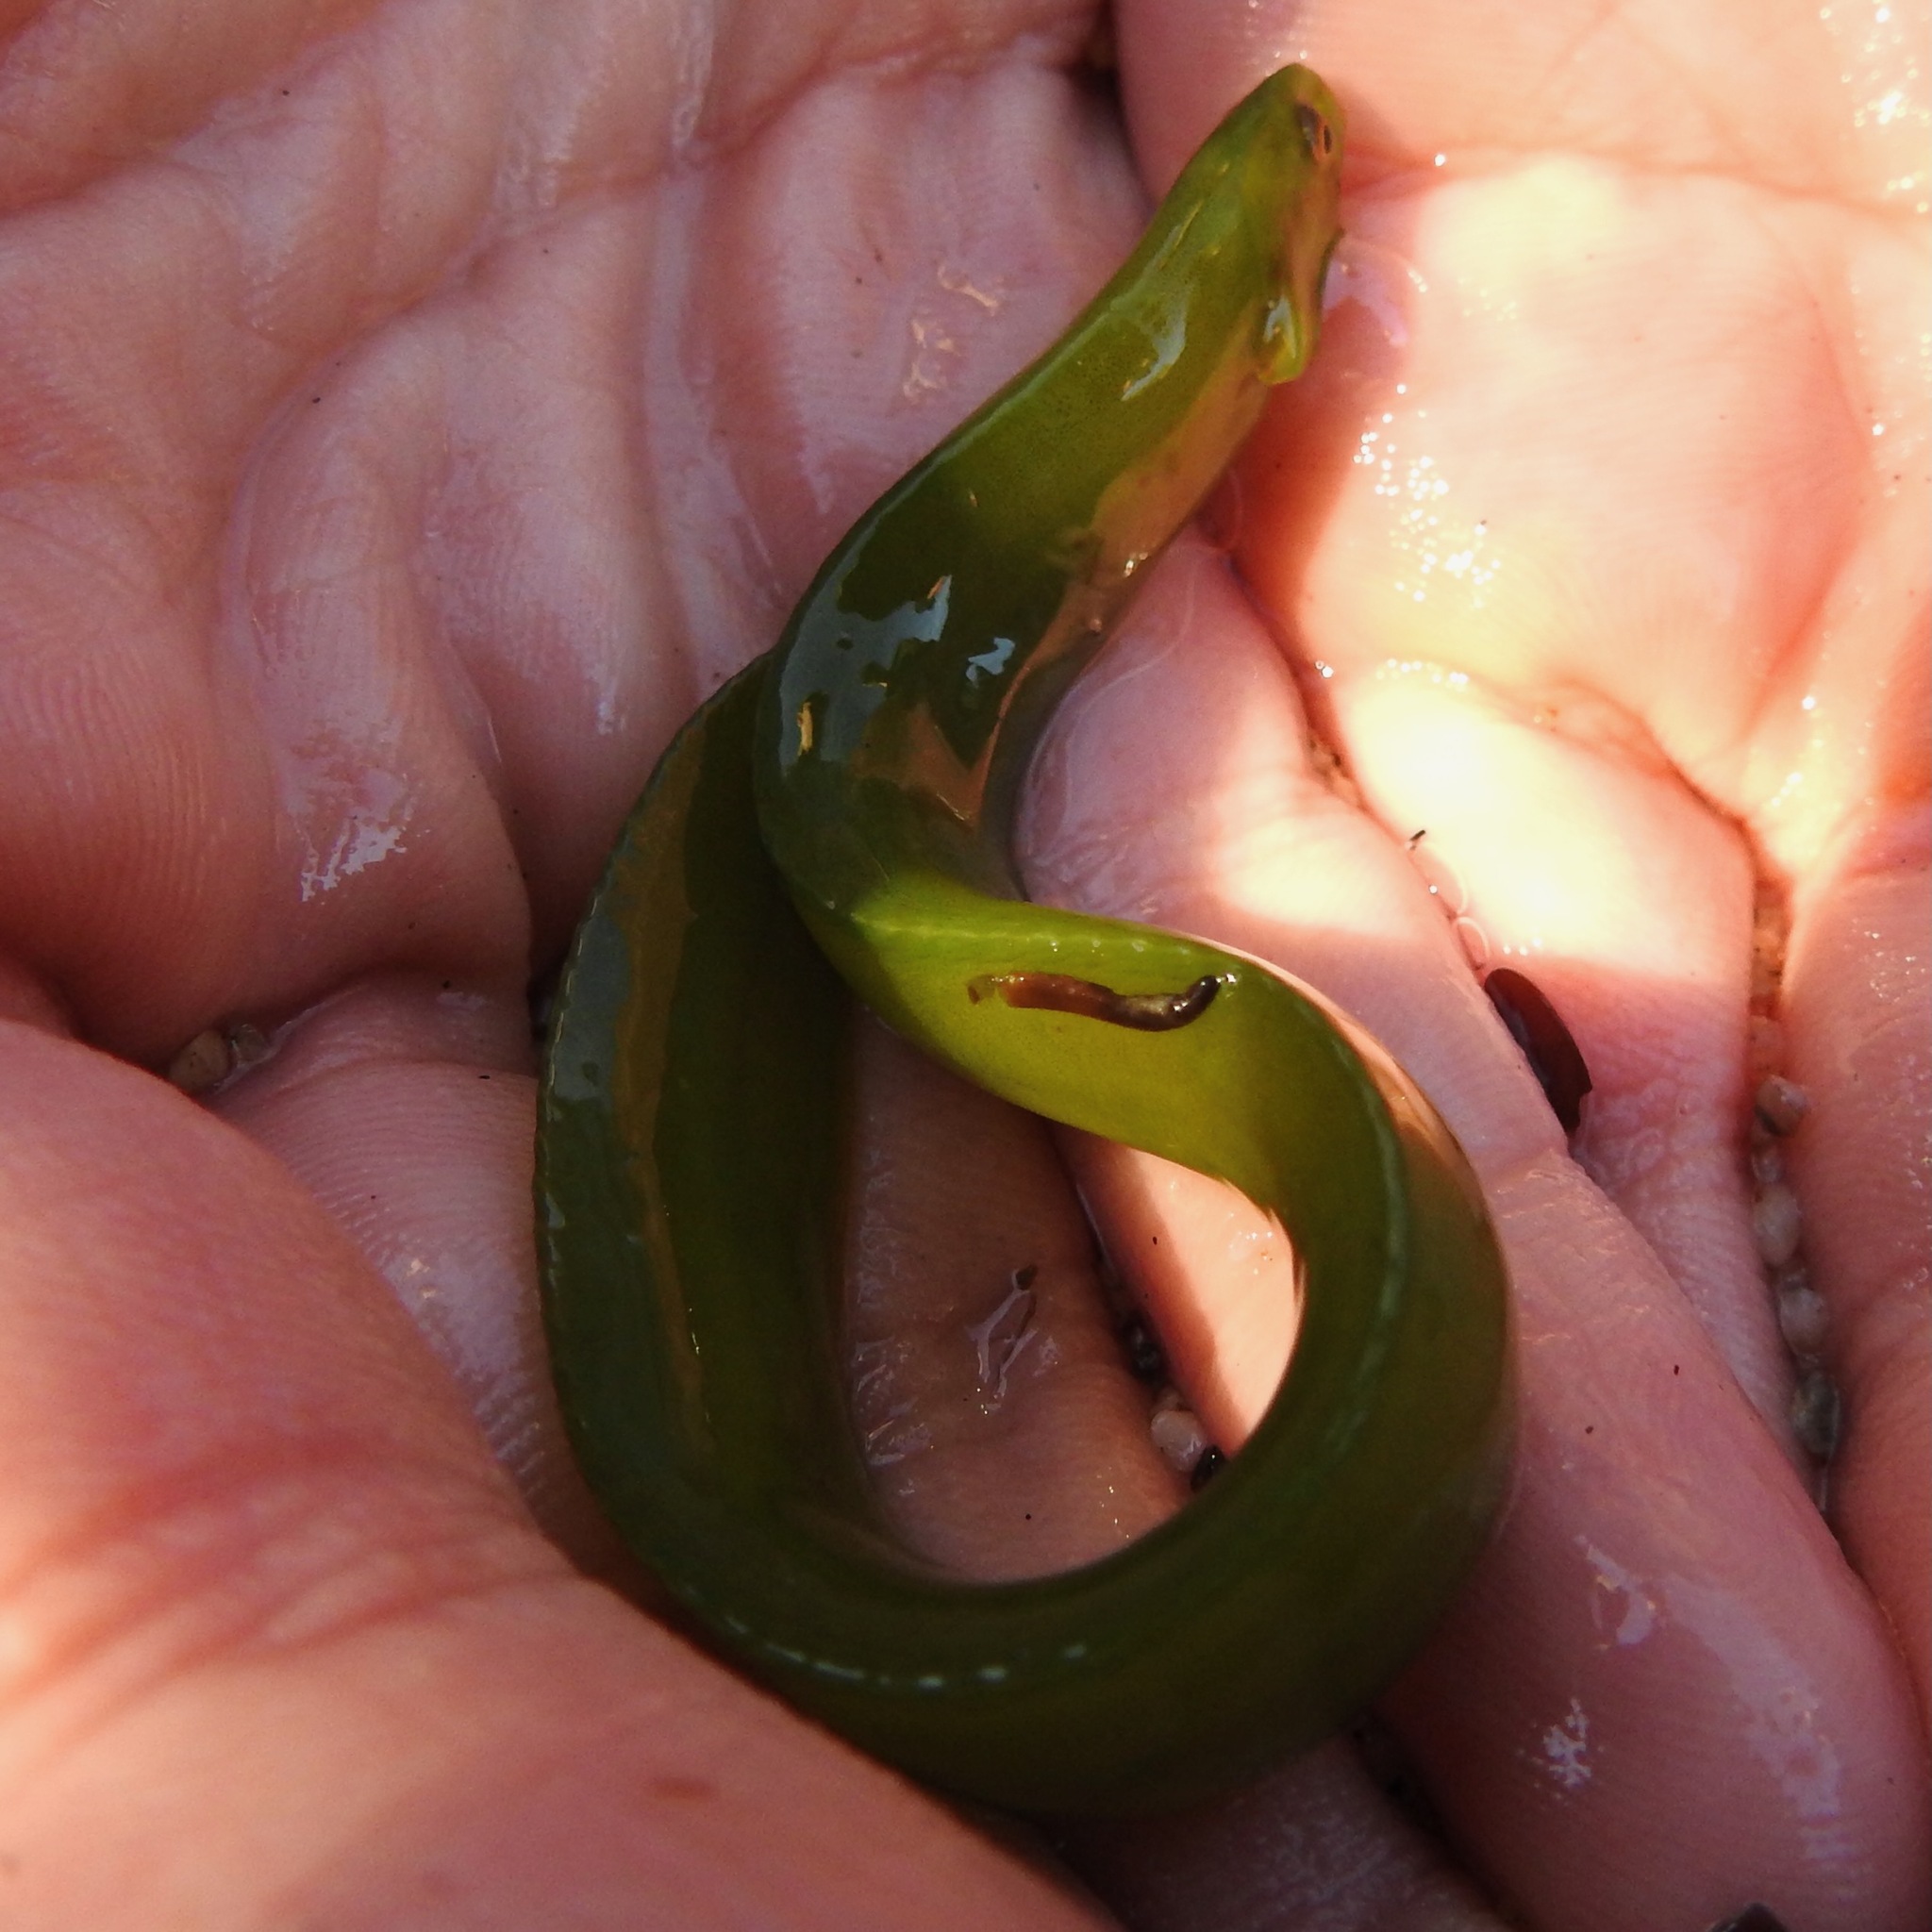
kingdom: Animalia
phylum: Chordata
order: Perciformes
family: Pholidae
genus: Apodichthys
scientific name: Apodichthys fucorum
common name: Rockweed gunnel
